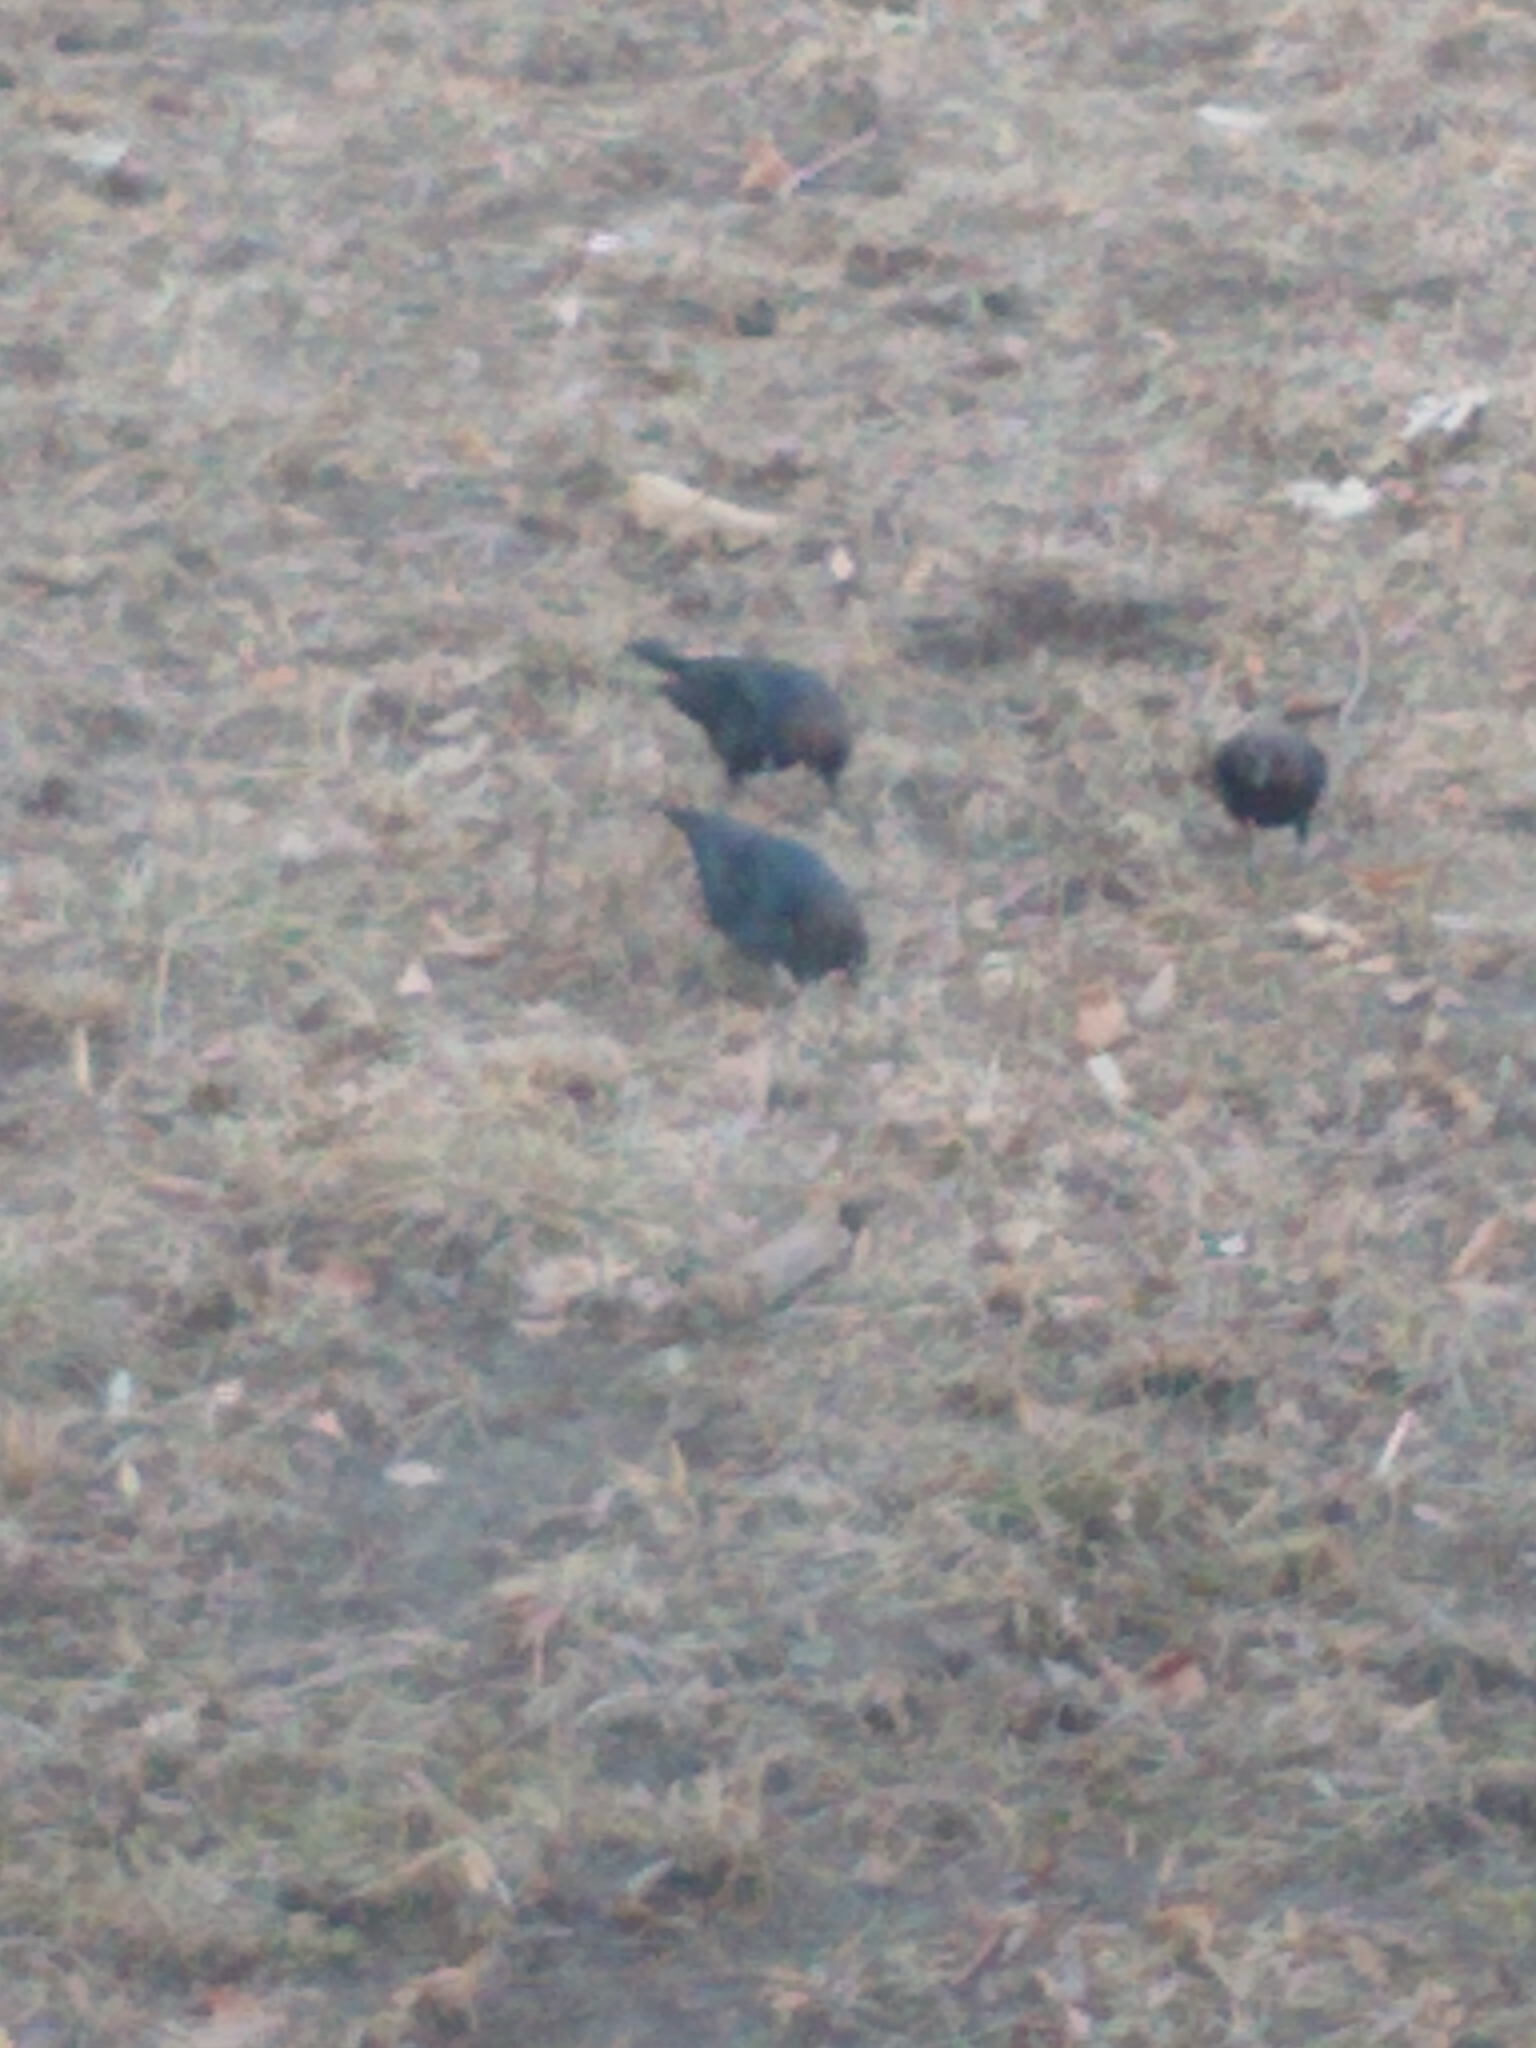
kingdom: Animalia
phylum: Chordata
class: Aves
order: Passeriformes
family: Icteridae
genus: Molothrus
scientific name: Molothrus ater
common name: Brown-headed cowbird
